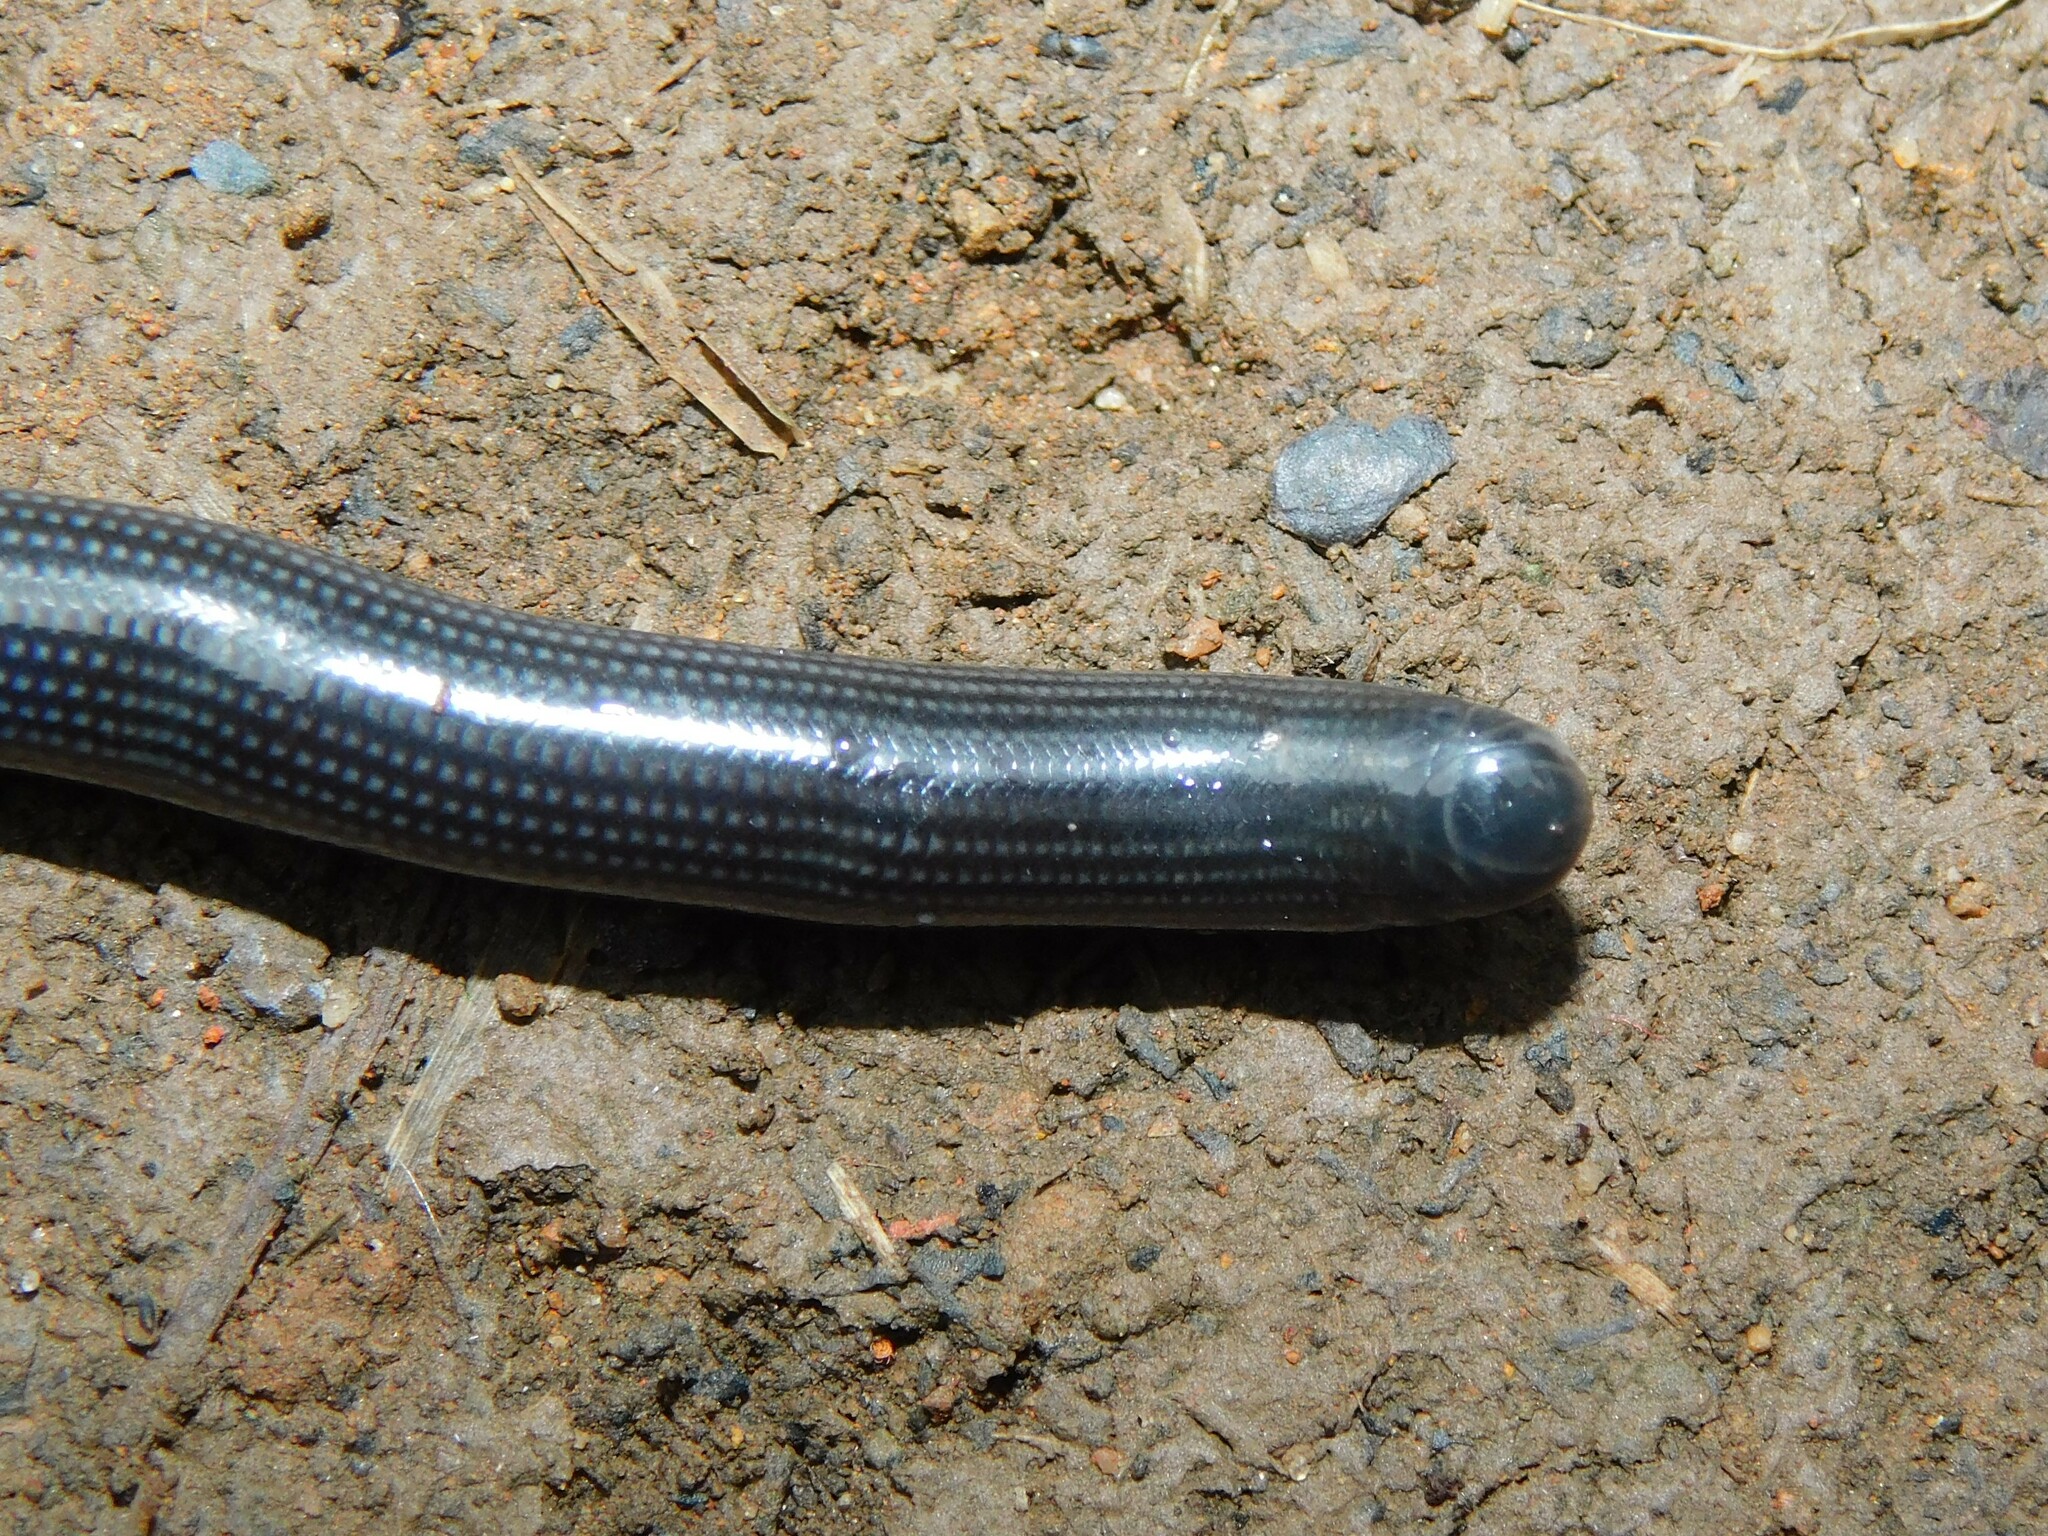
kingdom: Animalia
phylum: Chordata
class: Squamata
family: Typhlopidae
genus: Afrotyphlops
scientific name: Afrotyphlops lineolatus
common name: Common lined worm snake
